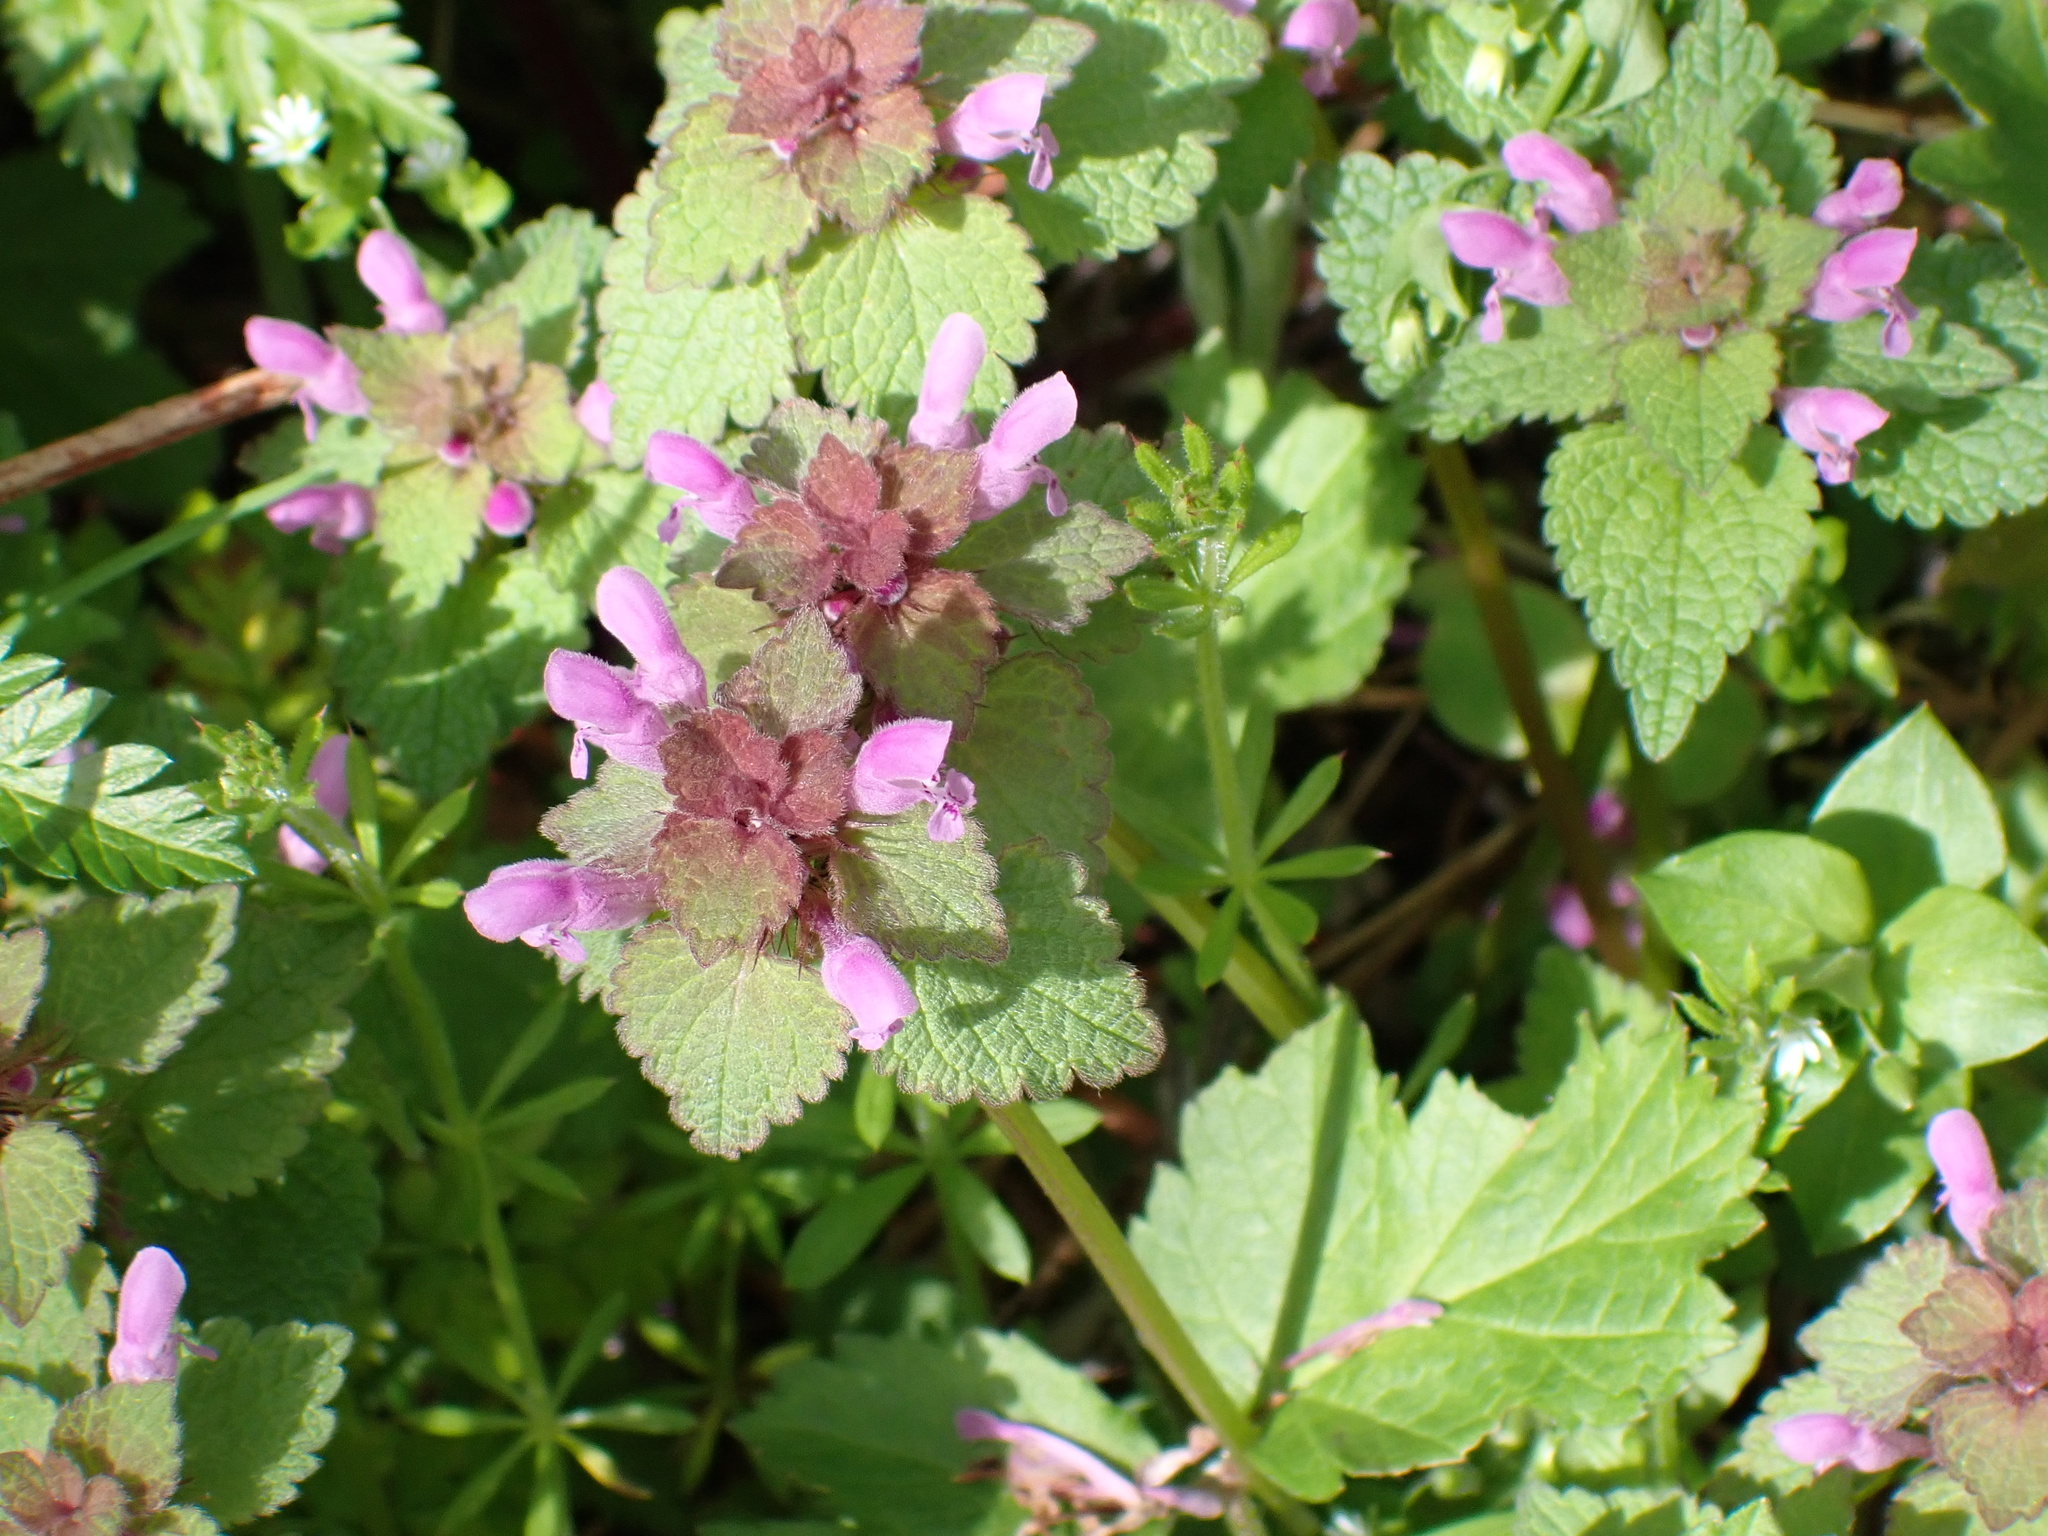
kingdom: Plantae
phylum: Tracheophyta
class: Magnoliopsida
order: Lamiales
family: Lamiaceae
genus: Lamium
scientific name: Lamium purpureum
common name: Red dead-nettle
